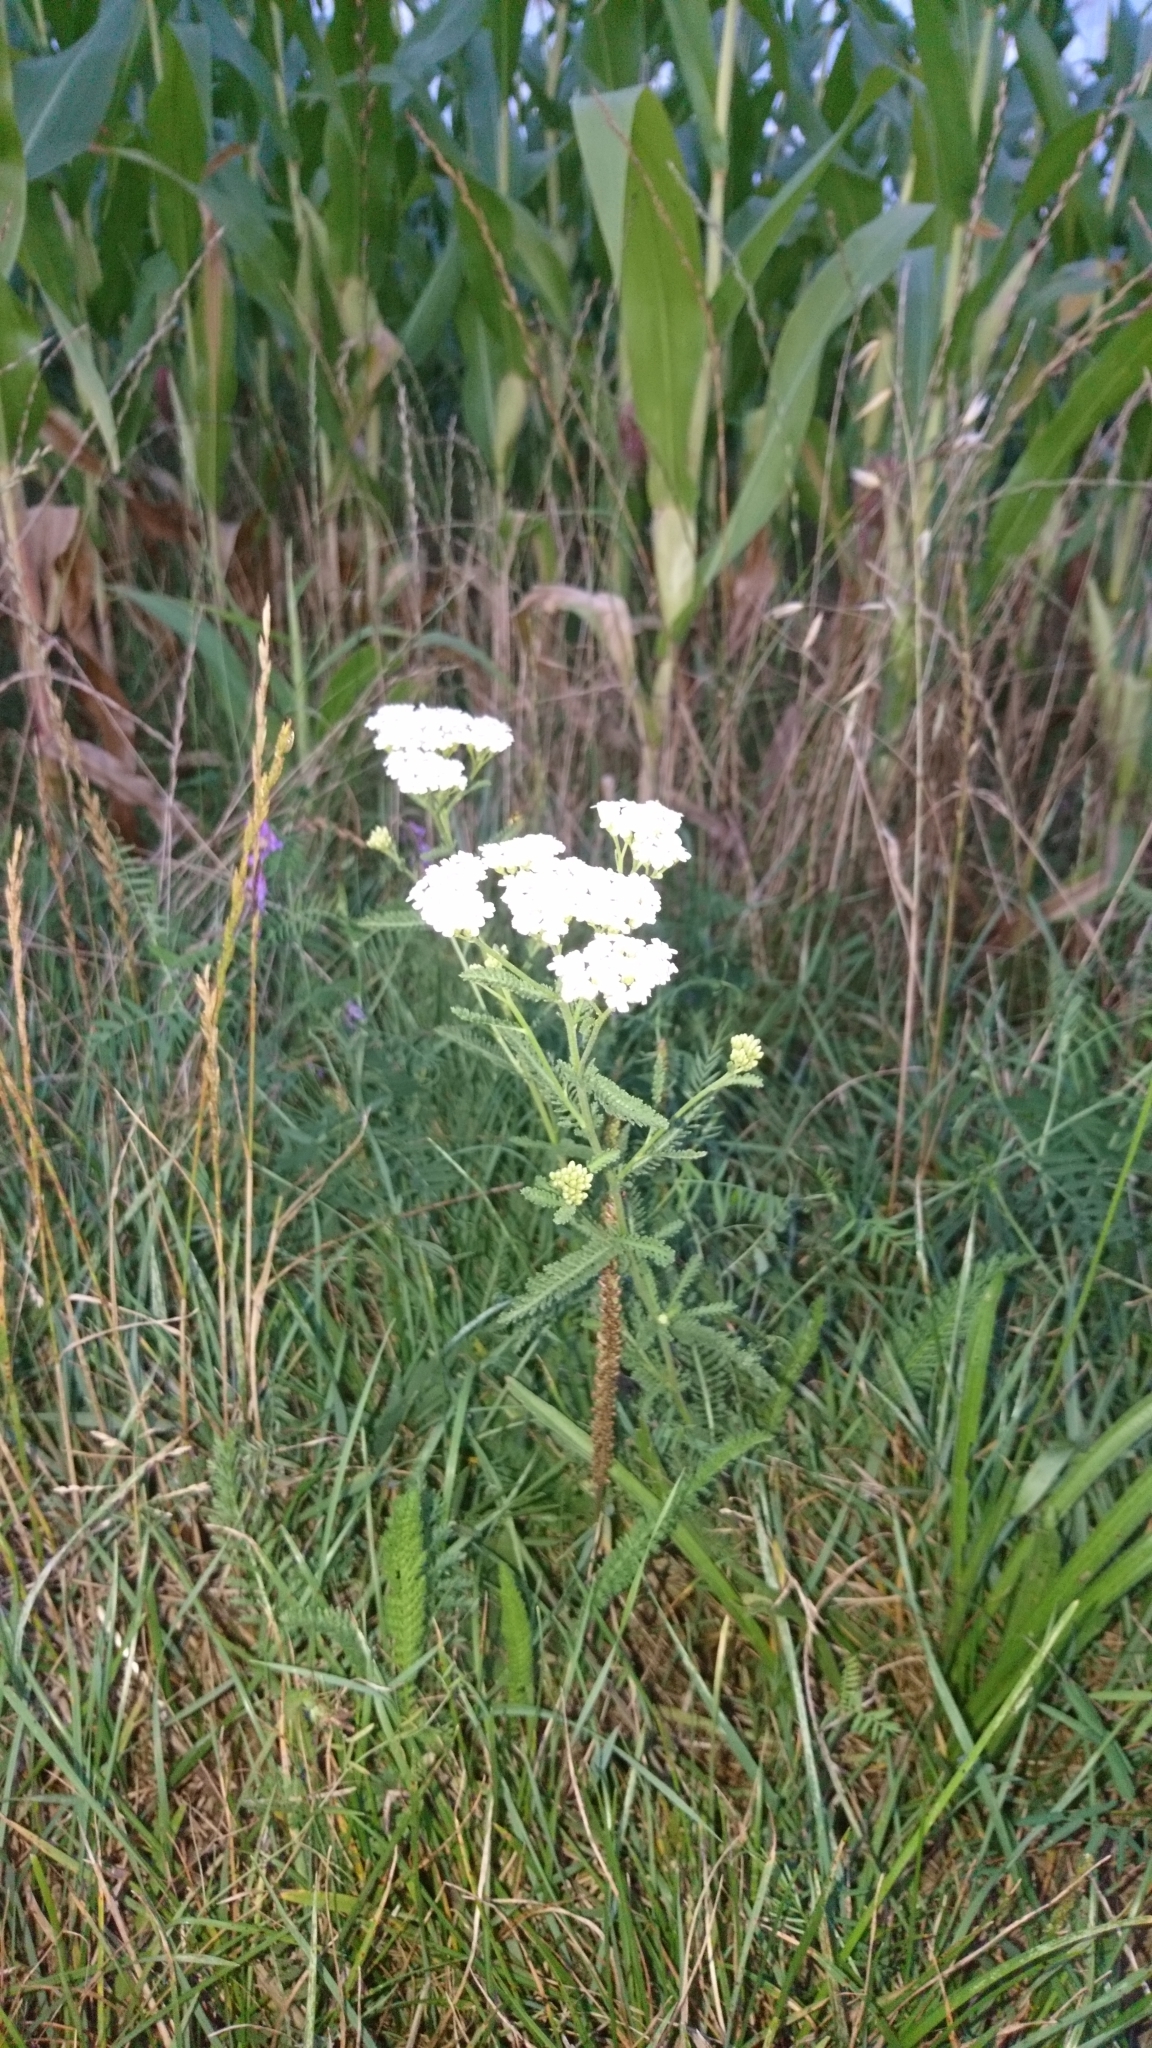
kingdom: Plantae
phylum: Tracheophyta
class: Magnoliopsida
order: Asterales
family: Asteraceae
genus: Achillea
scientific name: Achillea millefolium
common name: Yarrow
